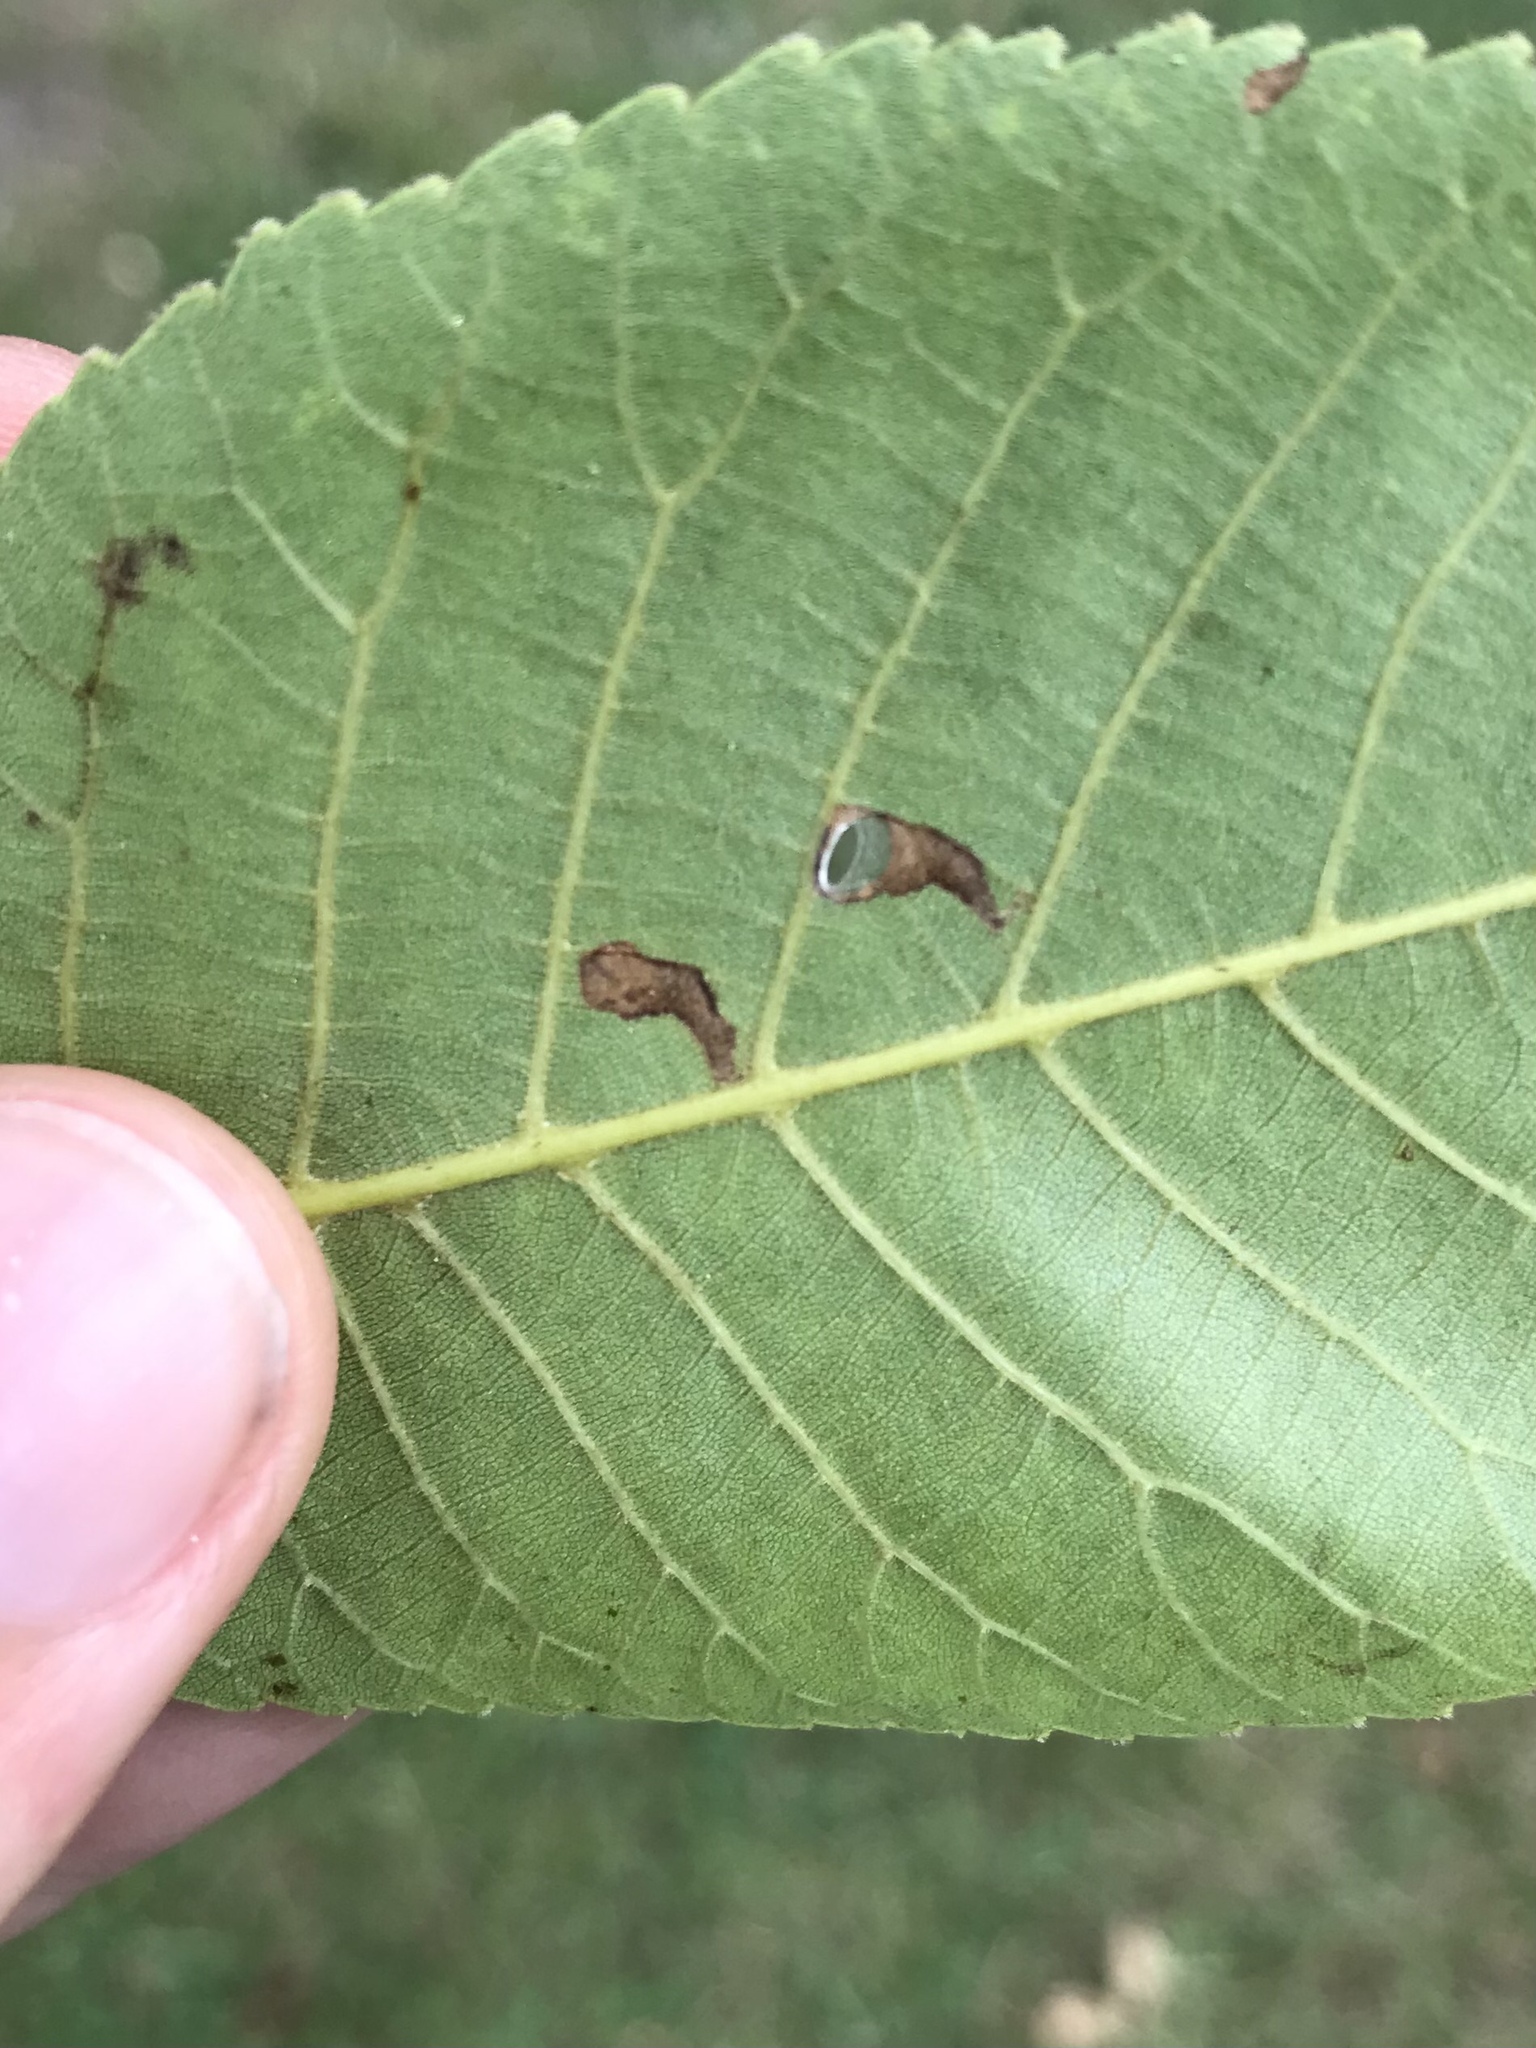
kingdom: Animalia
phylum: Arthropoda
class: Insecta
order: Lepidoptera
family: Heliozelidae
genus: Coptodisca
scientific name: Coptodisca lucifluella
